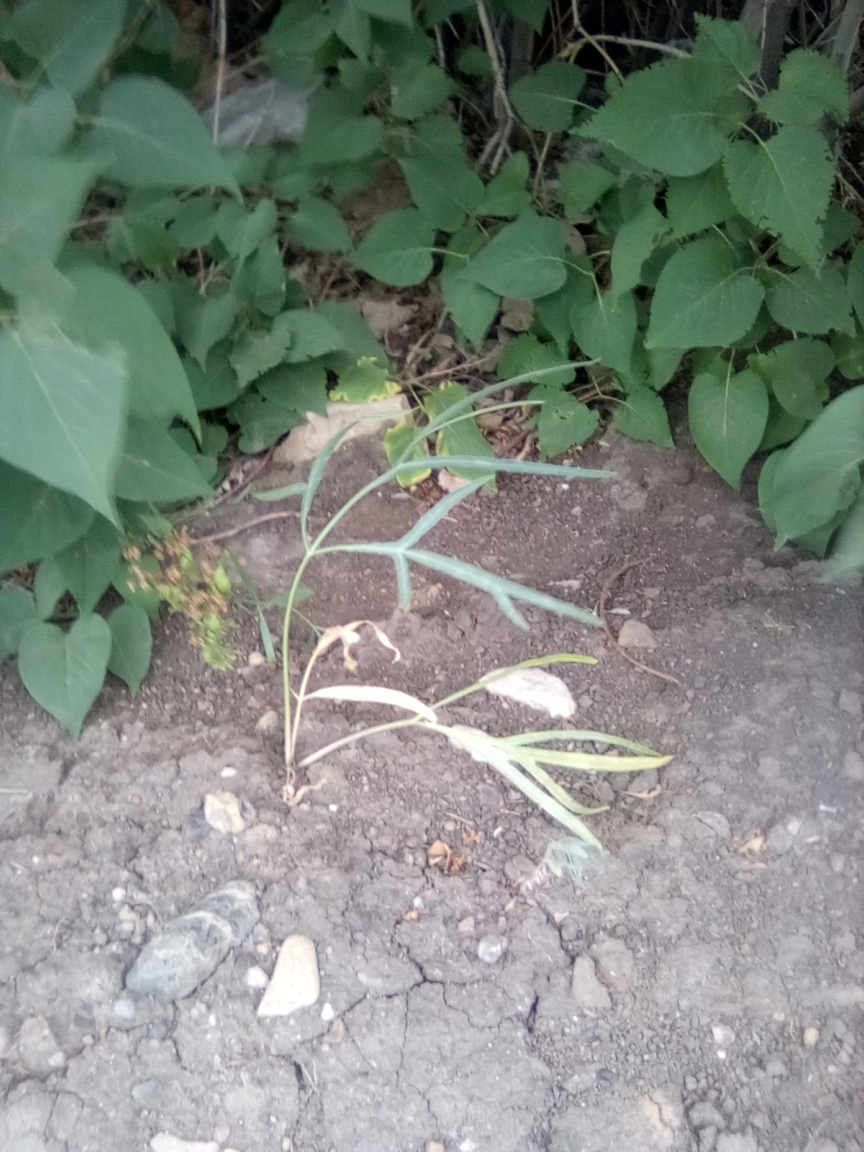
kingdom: Plantae
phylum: Tracheophyta
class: Magnoliopsida
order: Apiales
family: Apiaceae
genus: Falcaria
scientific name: Falcaria vulgaris
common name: Longleaf
